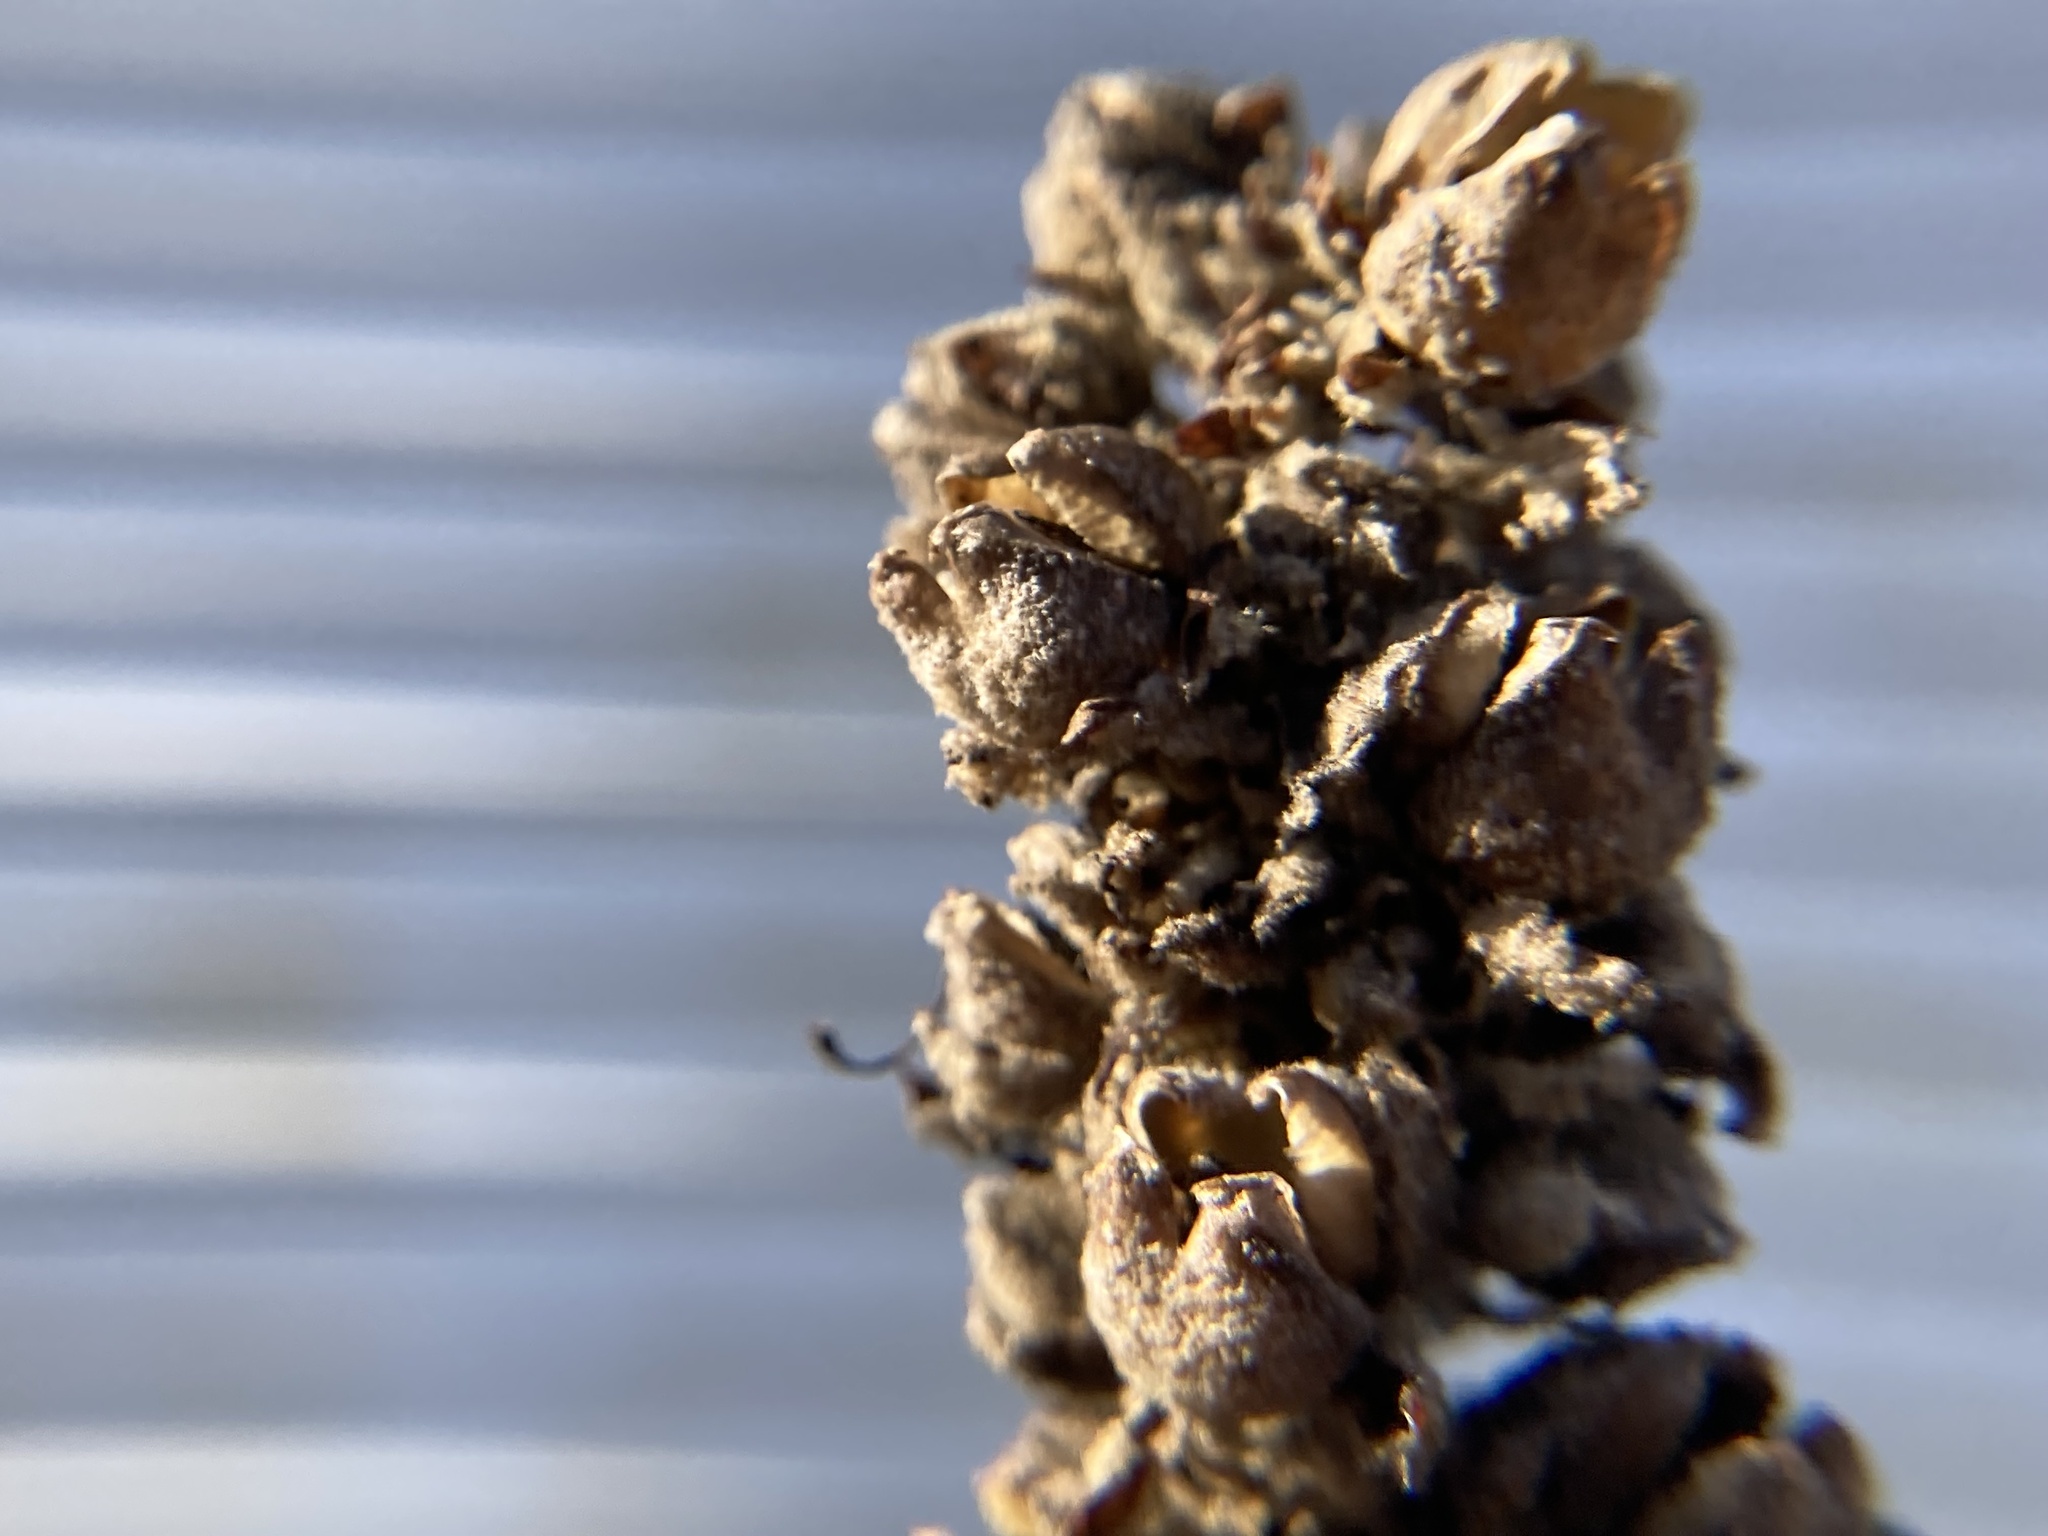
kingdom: Plantae
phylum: Tracheophyta
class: Magnoliopsida
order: Lamiales
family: Scrophulariaceae
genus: Verbascum
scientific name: Verbascum thapsus
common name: Common mullein
